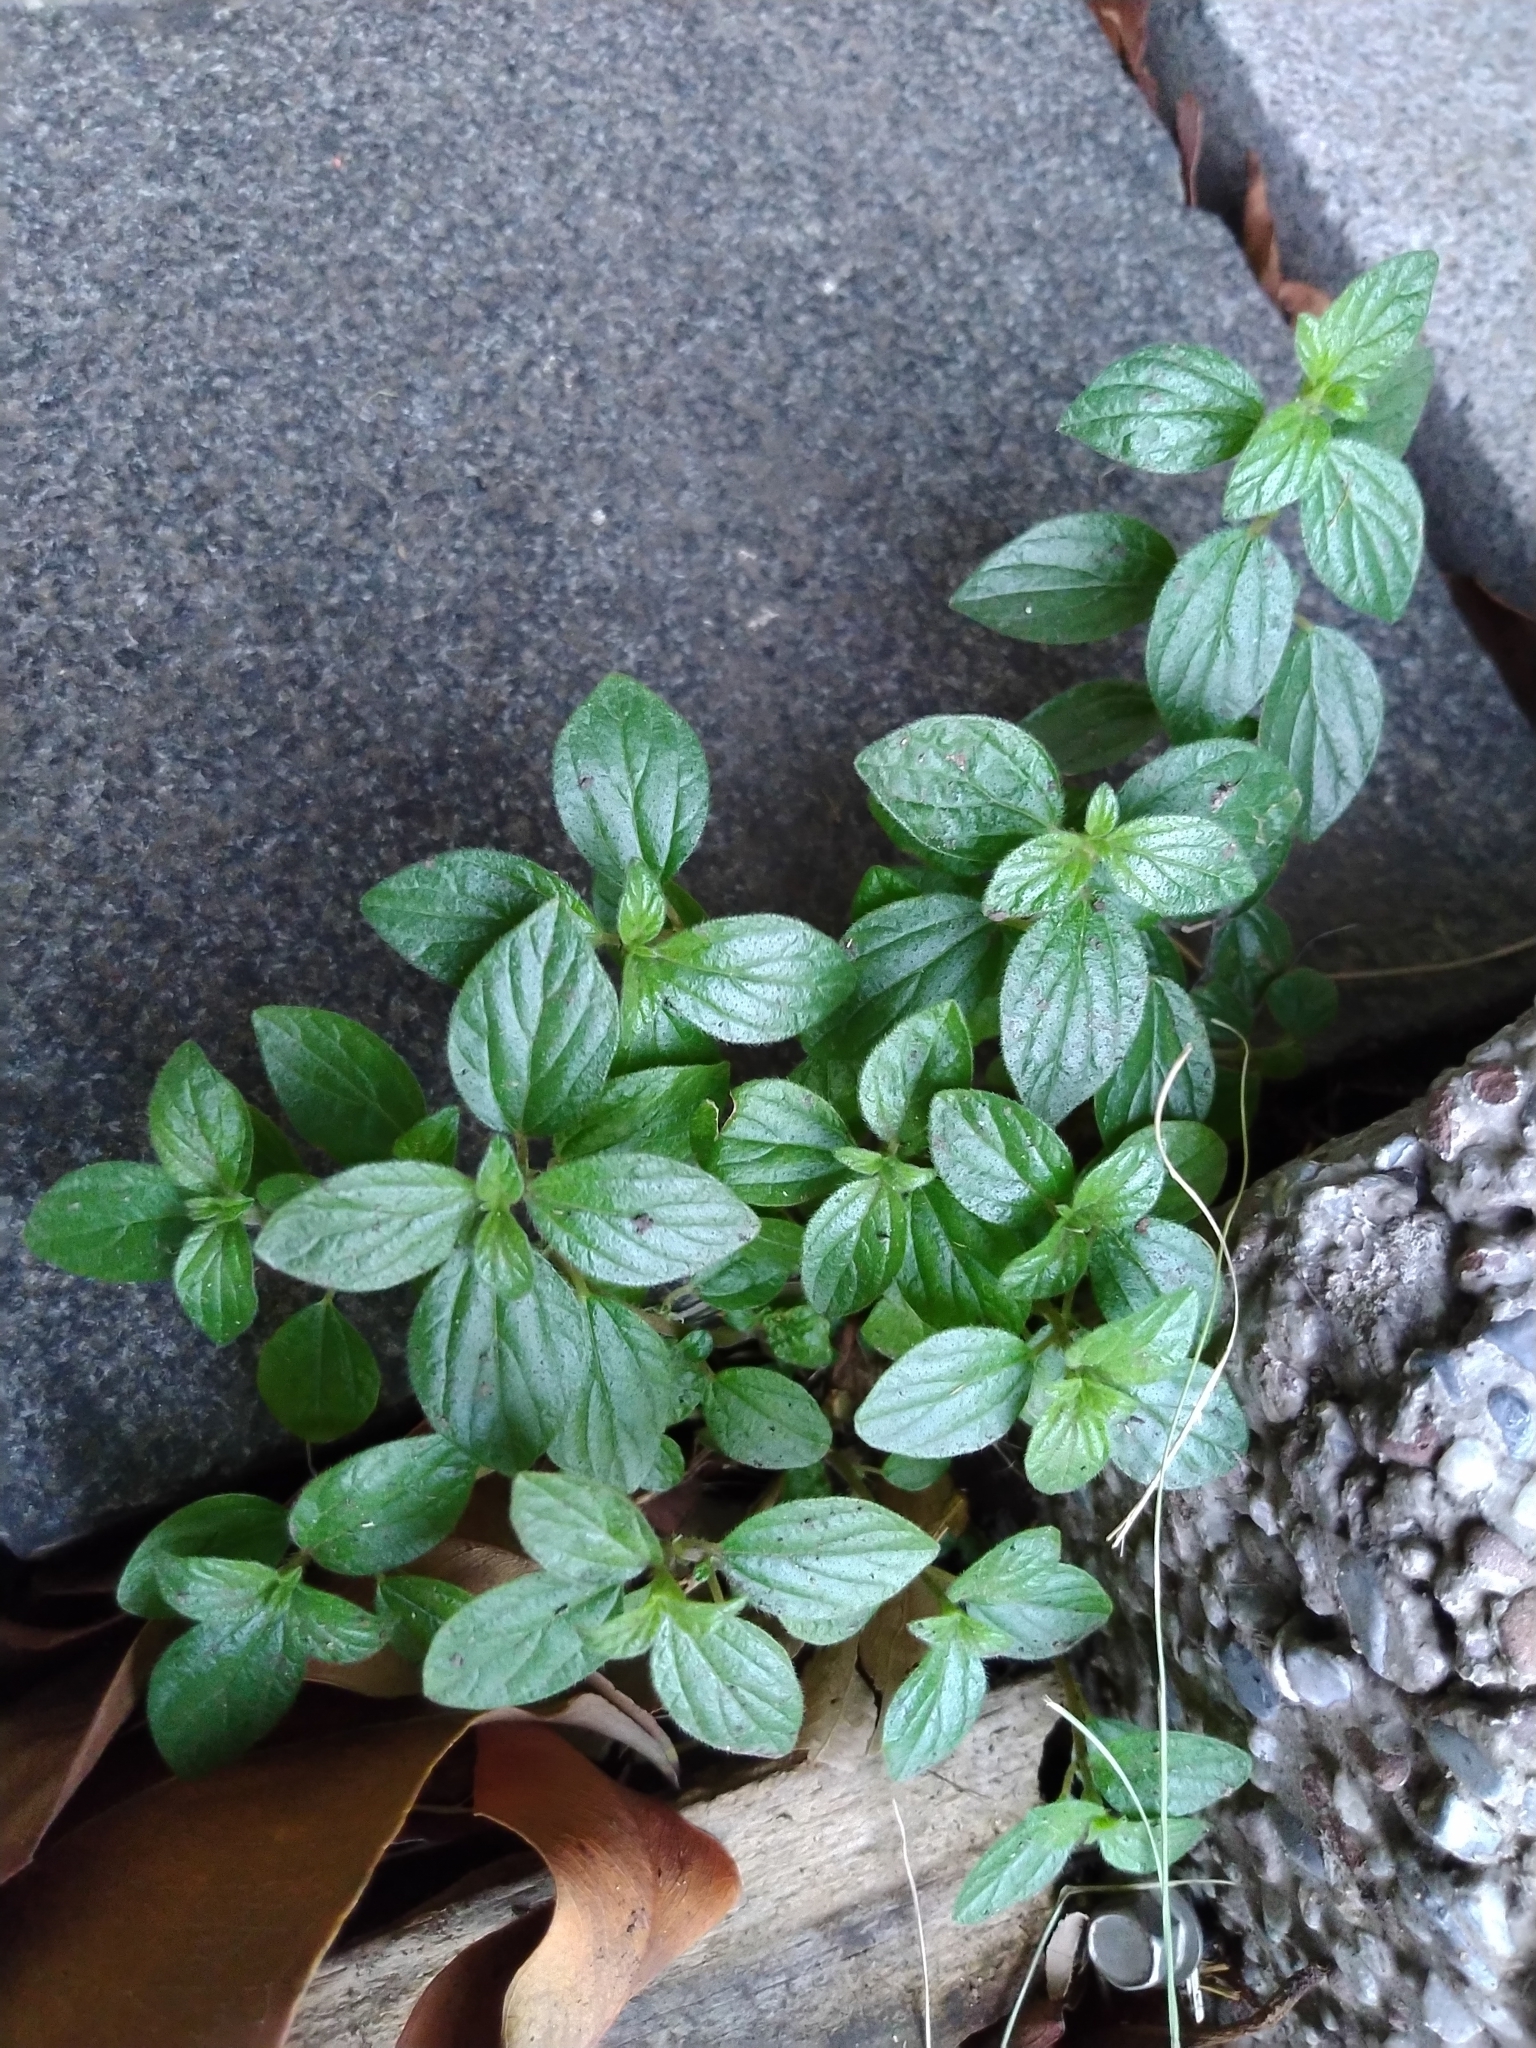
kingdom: Plantae
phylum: Tracheophyta
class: Magnoliopsida
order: Rosales
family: Urticaceae
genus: Pouzolzia
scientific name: Pouzolzia zeylanica
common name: Graceful pouzolzsbush
